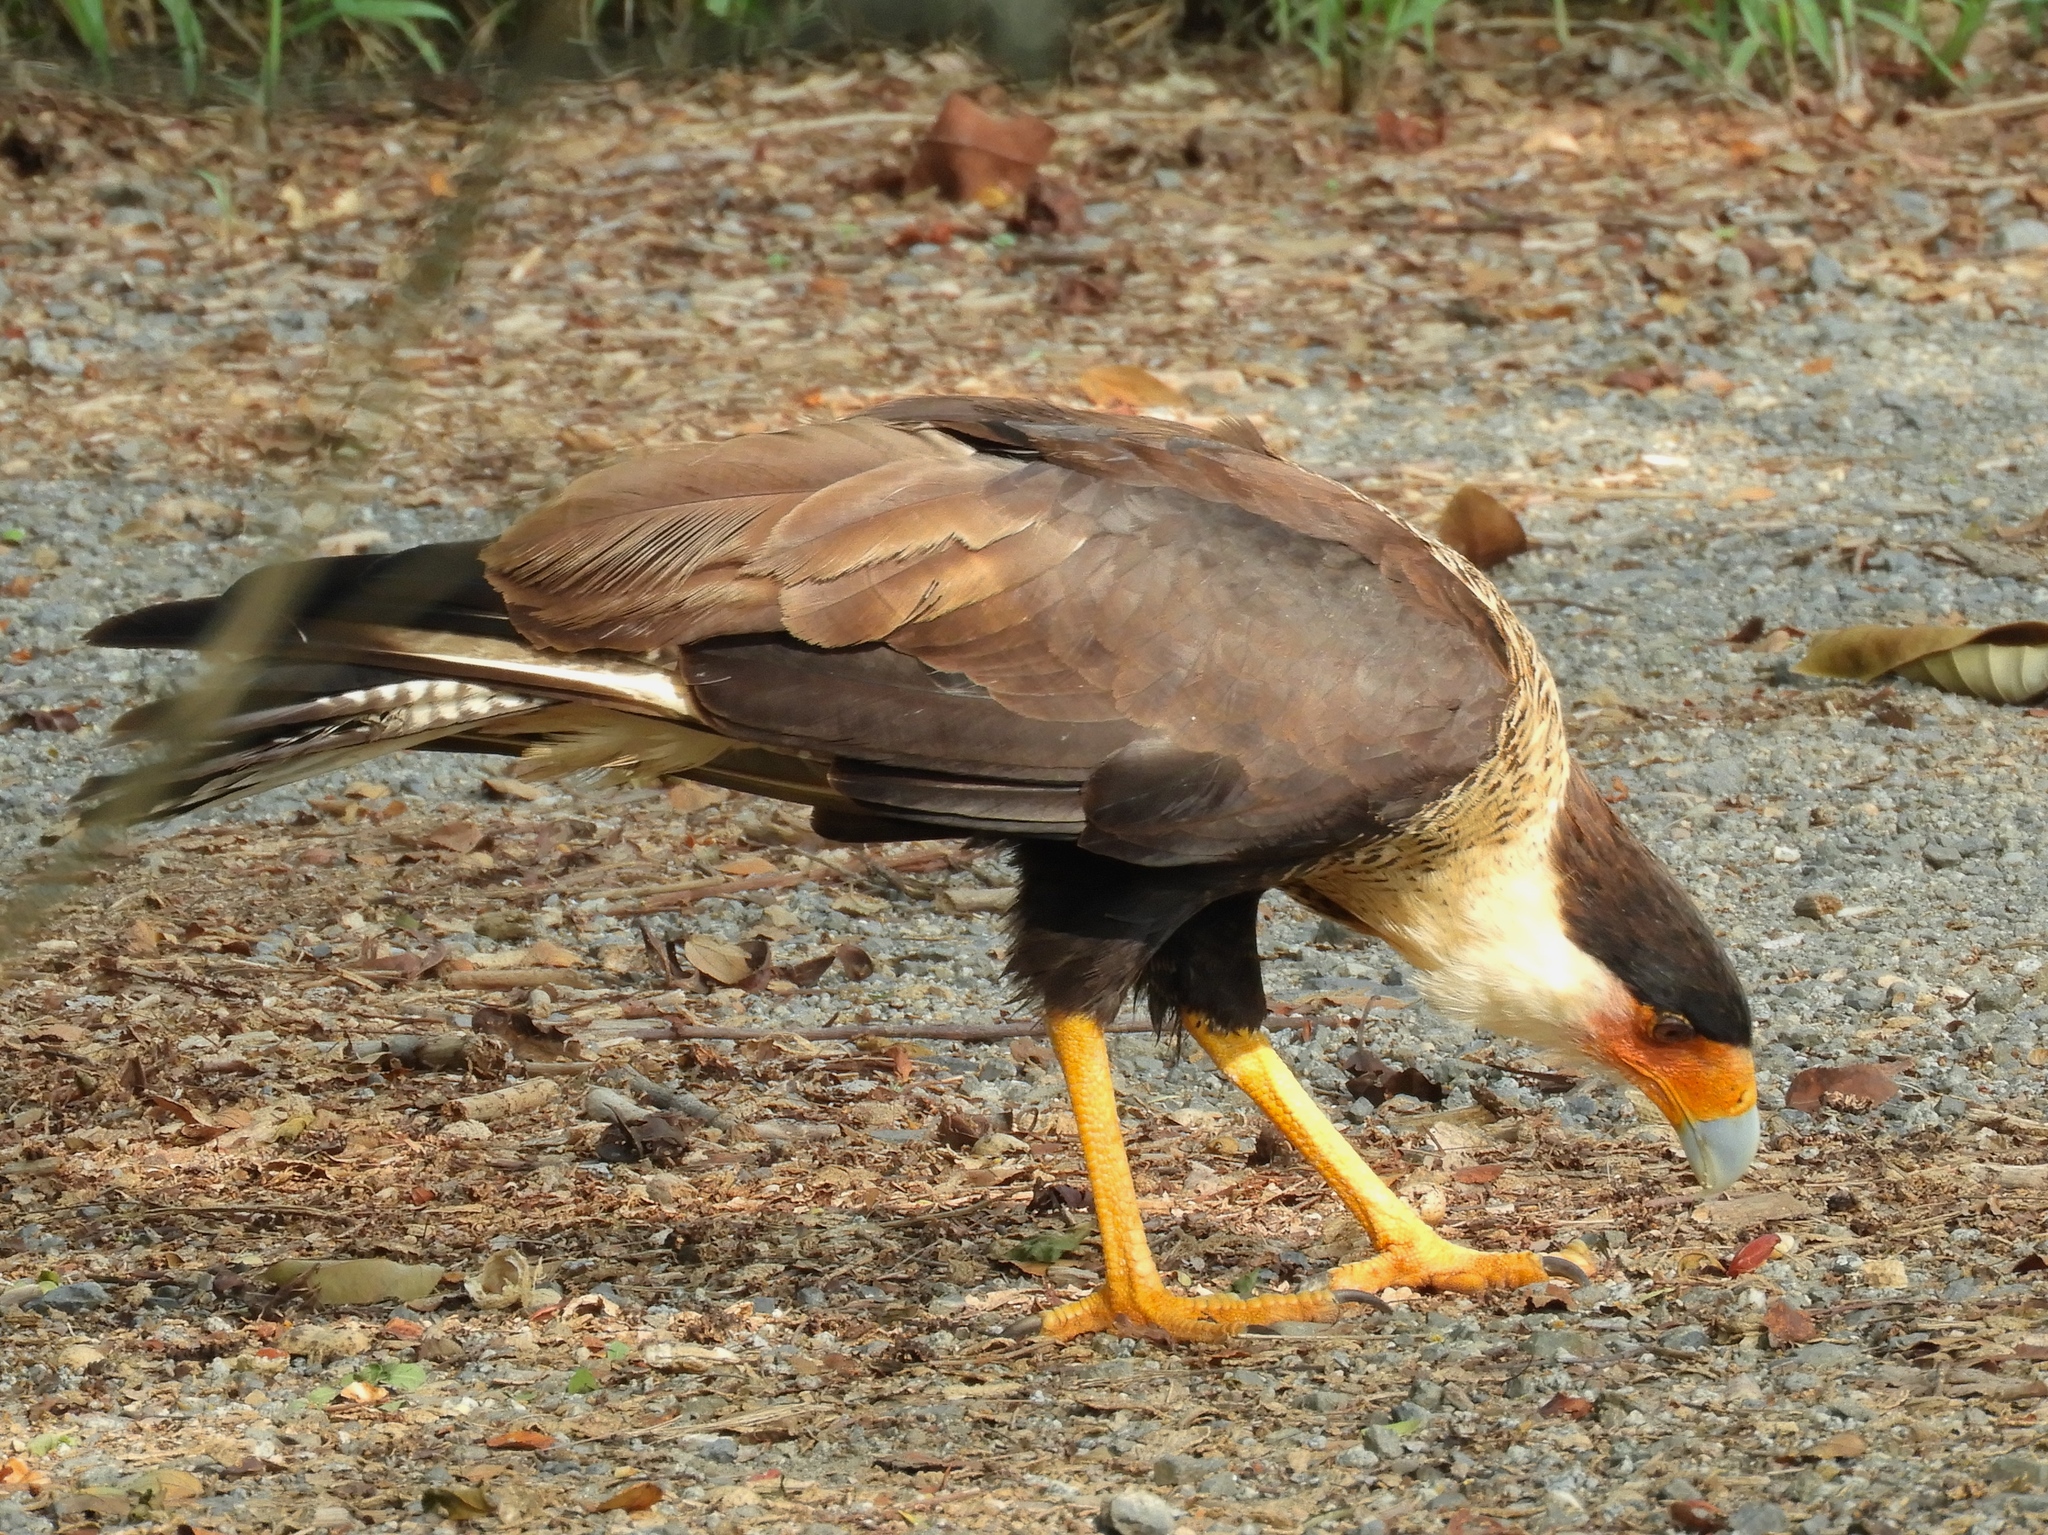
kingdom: Animalia
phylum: Chordata
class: Aves
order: Falconiformes
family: Falconidae
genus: Caracara
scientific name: Caracara plancus
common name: Southern caracara
